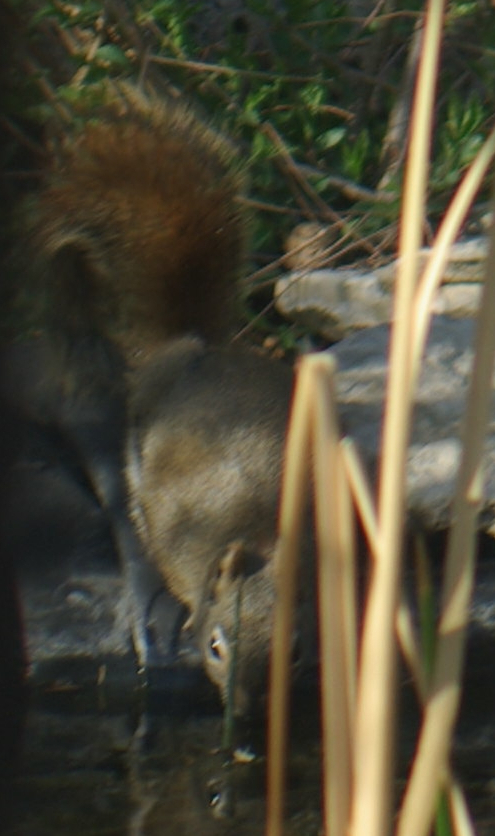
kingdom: Animalia
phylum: Chordata
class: Mammalia
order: Rodentia
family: Sciuridae
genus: Tamiasciurus
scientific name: Tamiasciurus hudsonicus
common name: Red squirrel
